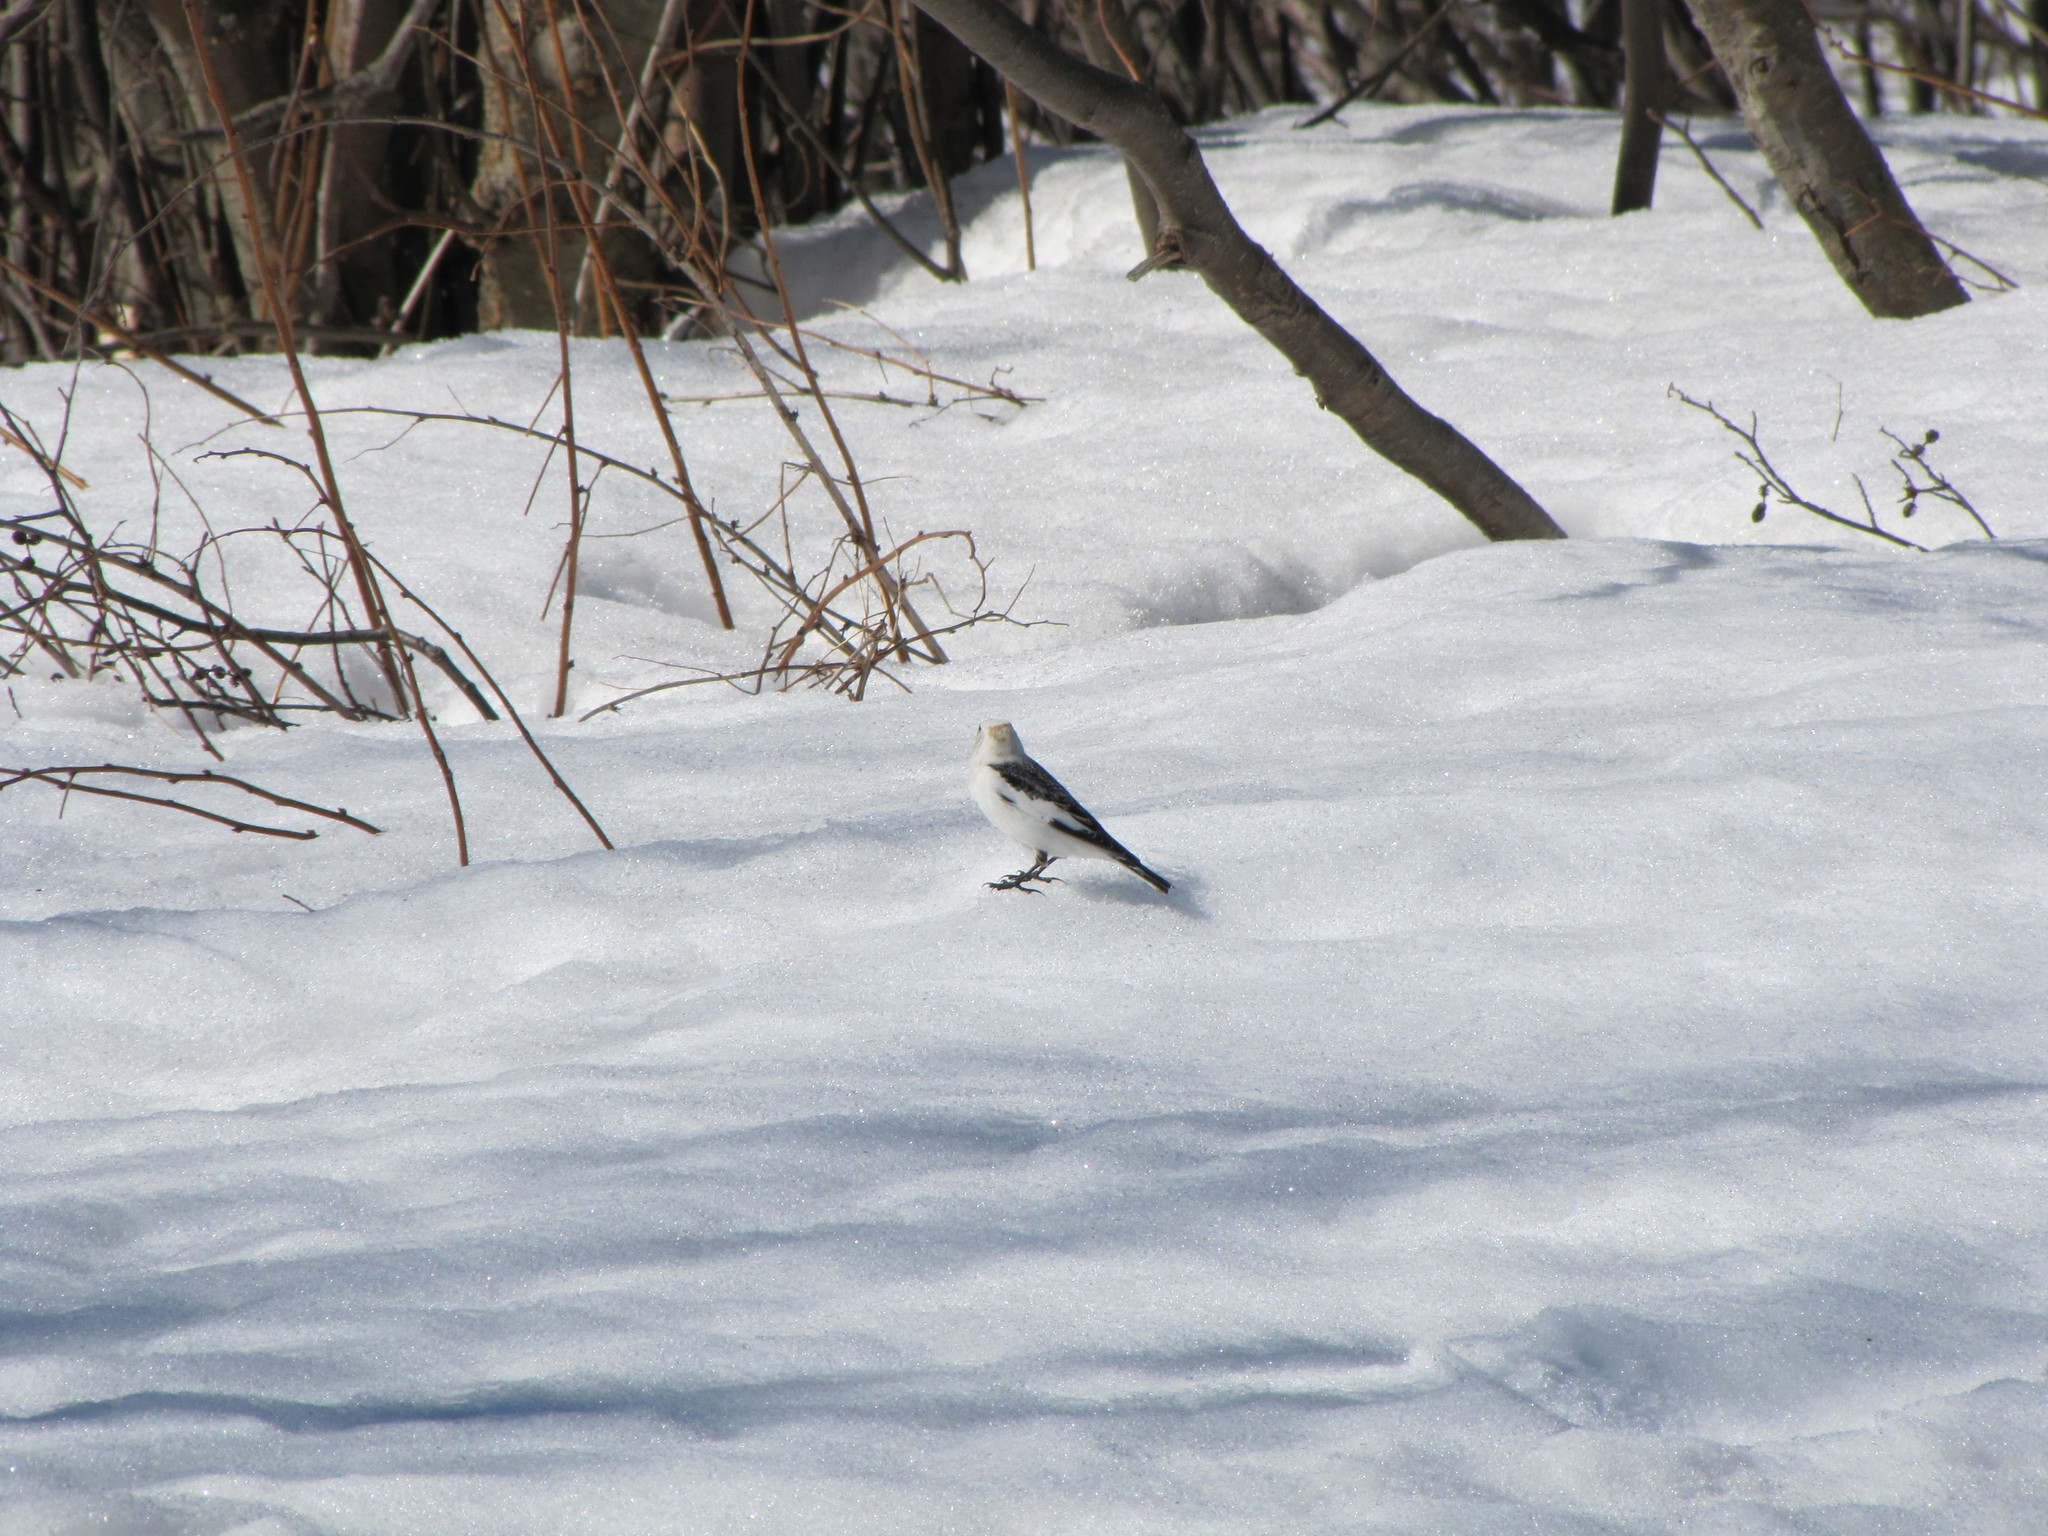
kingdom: Animalia
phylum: Chordata
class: Aves
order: Passeriformes
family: Calcariidae
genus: Plectrophenax
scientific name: Plectrophenax nivalis
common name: Snow bunting
